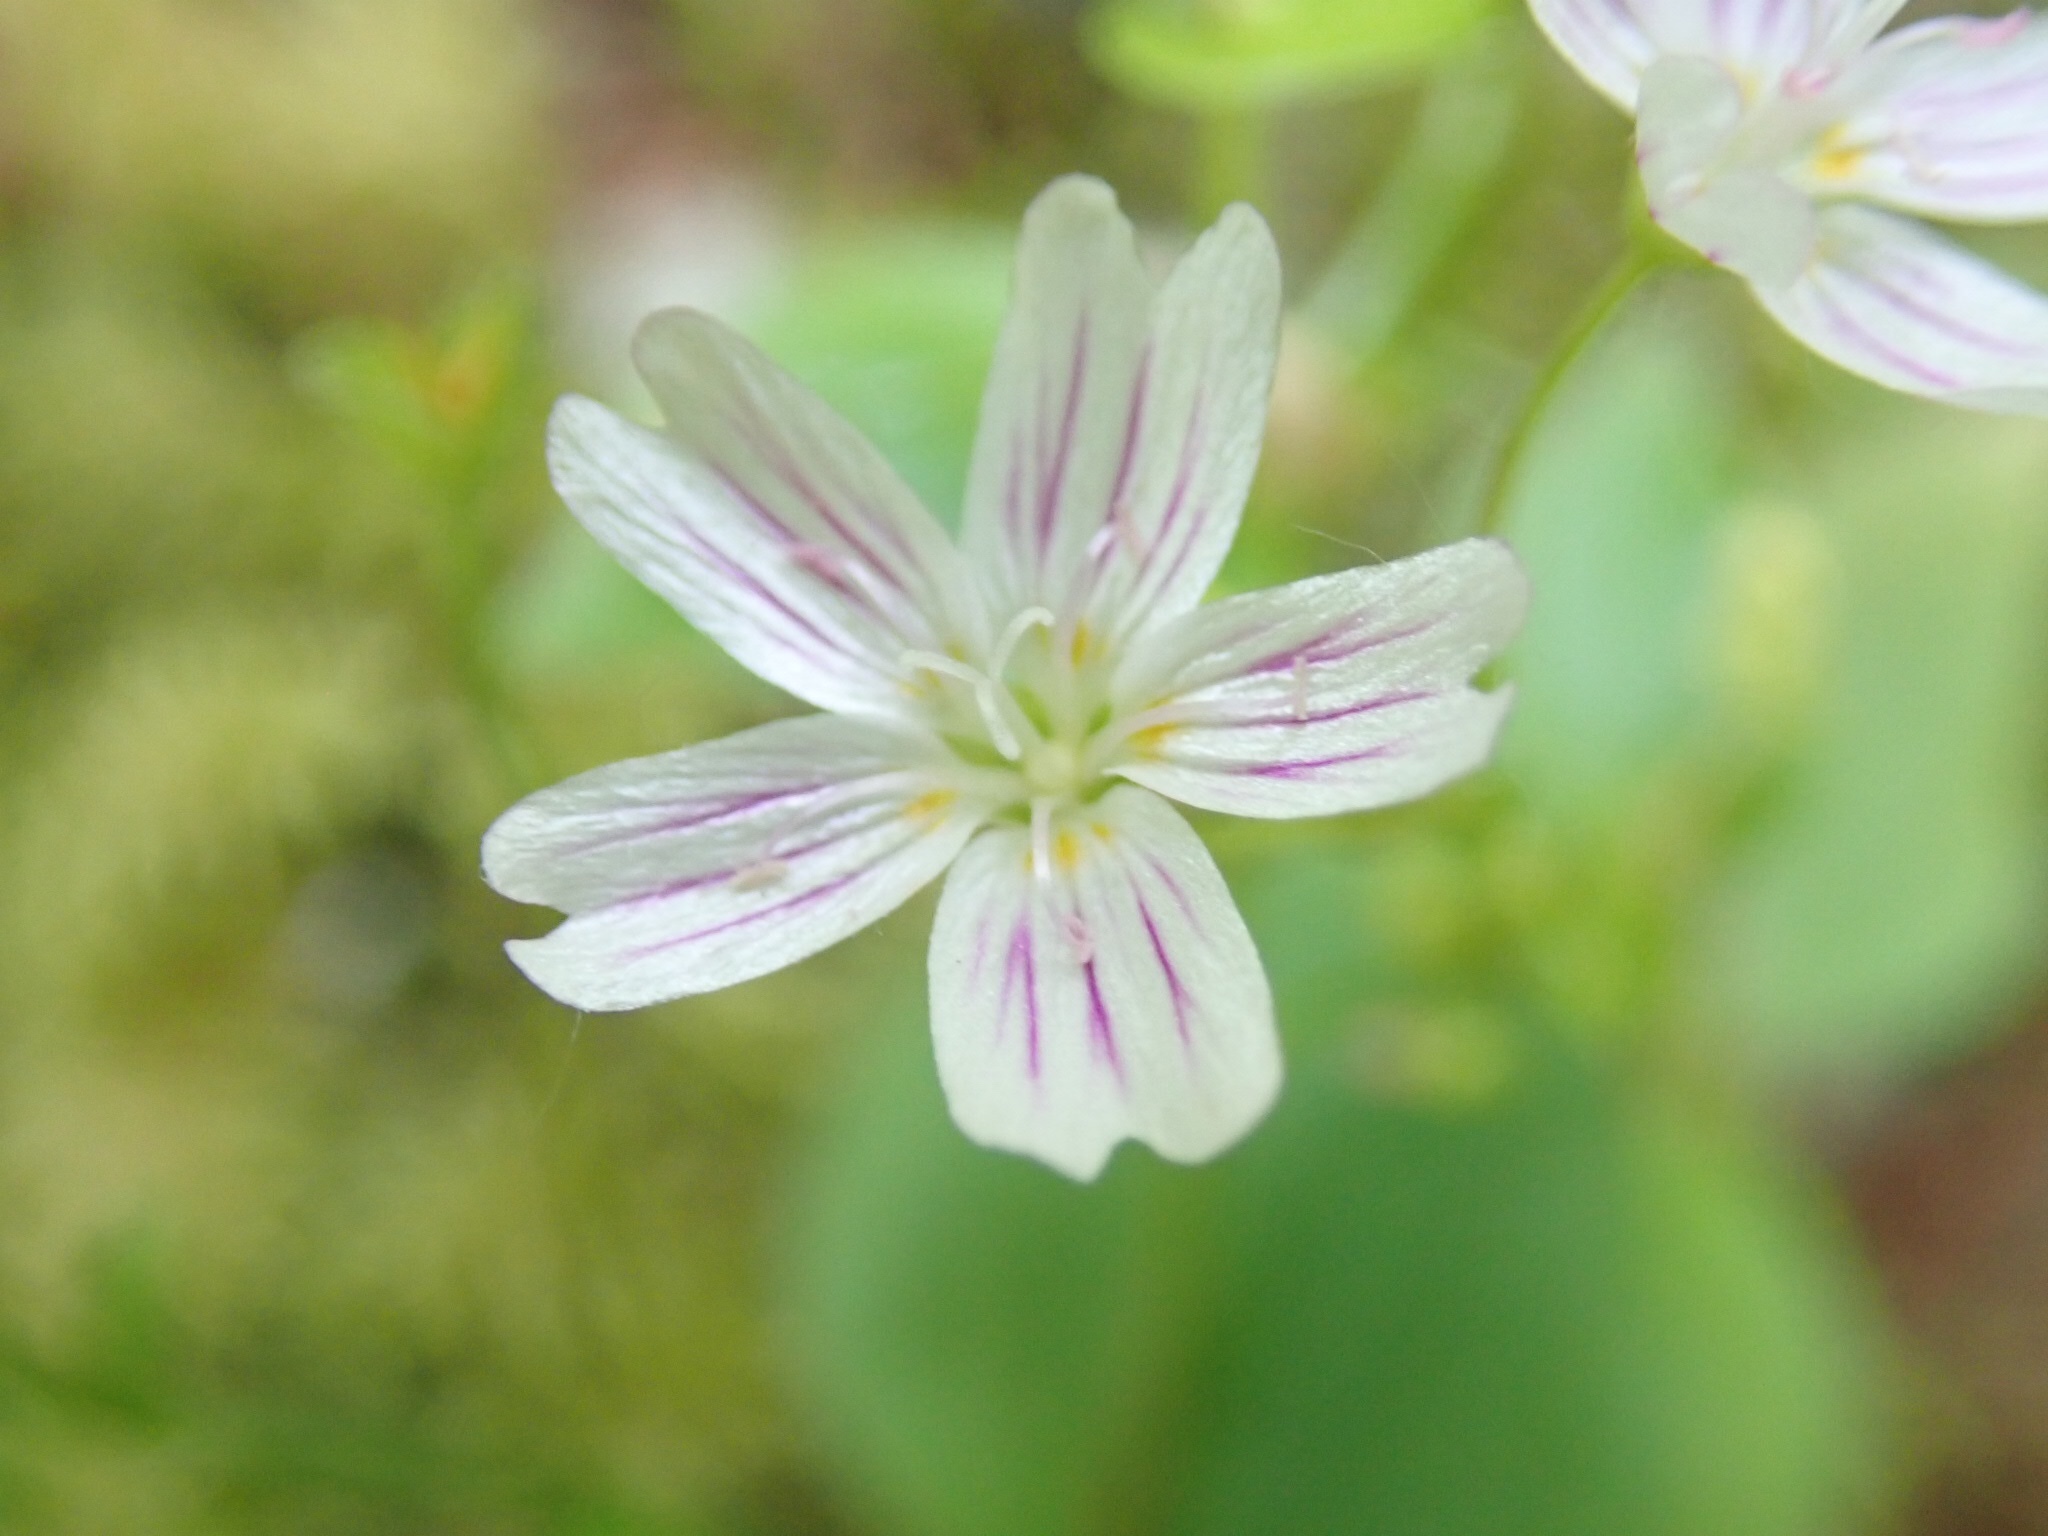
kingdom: Plantae
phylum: Tracheophyta
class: Magnoliopsida
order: Caryophyllales
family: Montiaceae
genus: Claytonia
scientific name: Claytonia sibirica
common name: Pink purslane
